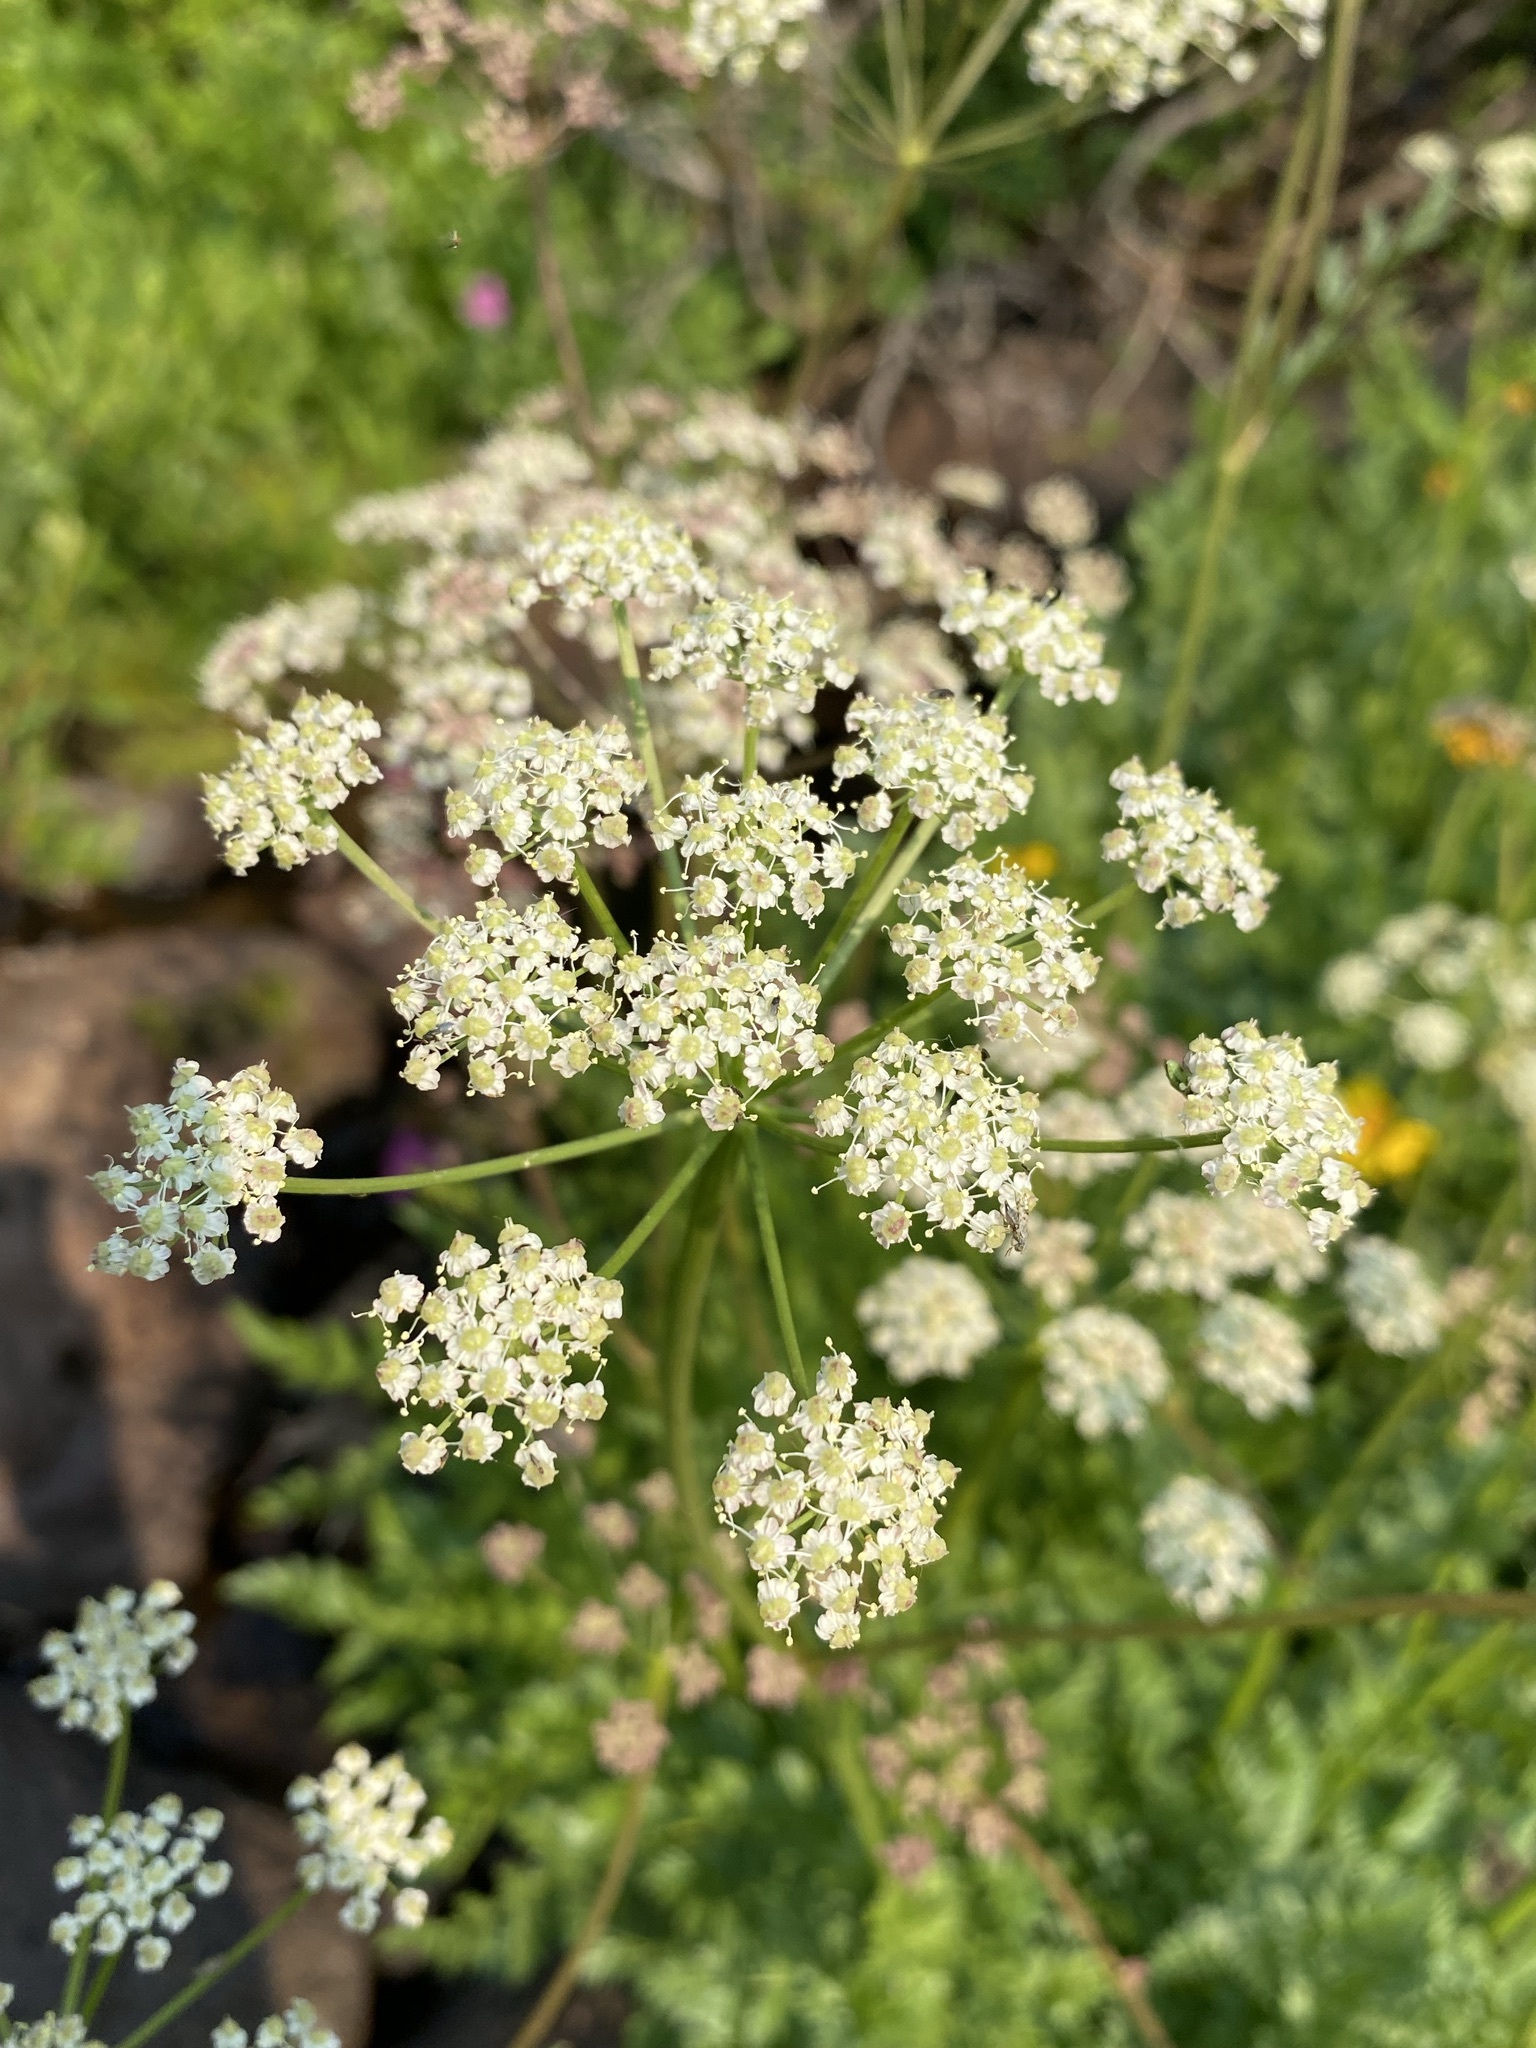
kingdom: Plantae
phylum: Tracheophyta
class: Magnoliopsida
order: Apiales
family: Apiaceae
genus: Ligusticum
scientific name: Ligusticum grayi
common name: Gray's licorice-root
